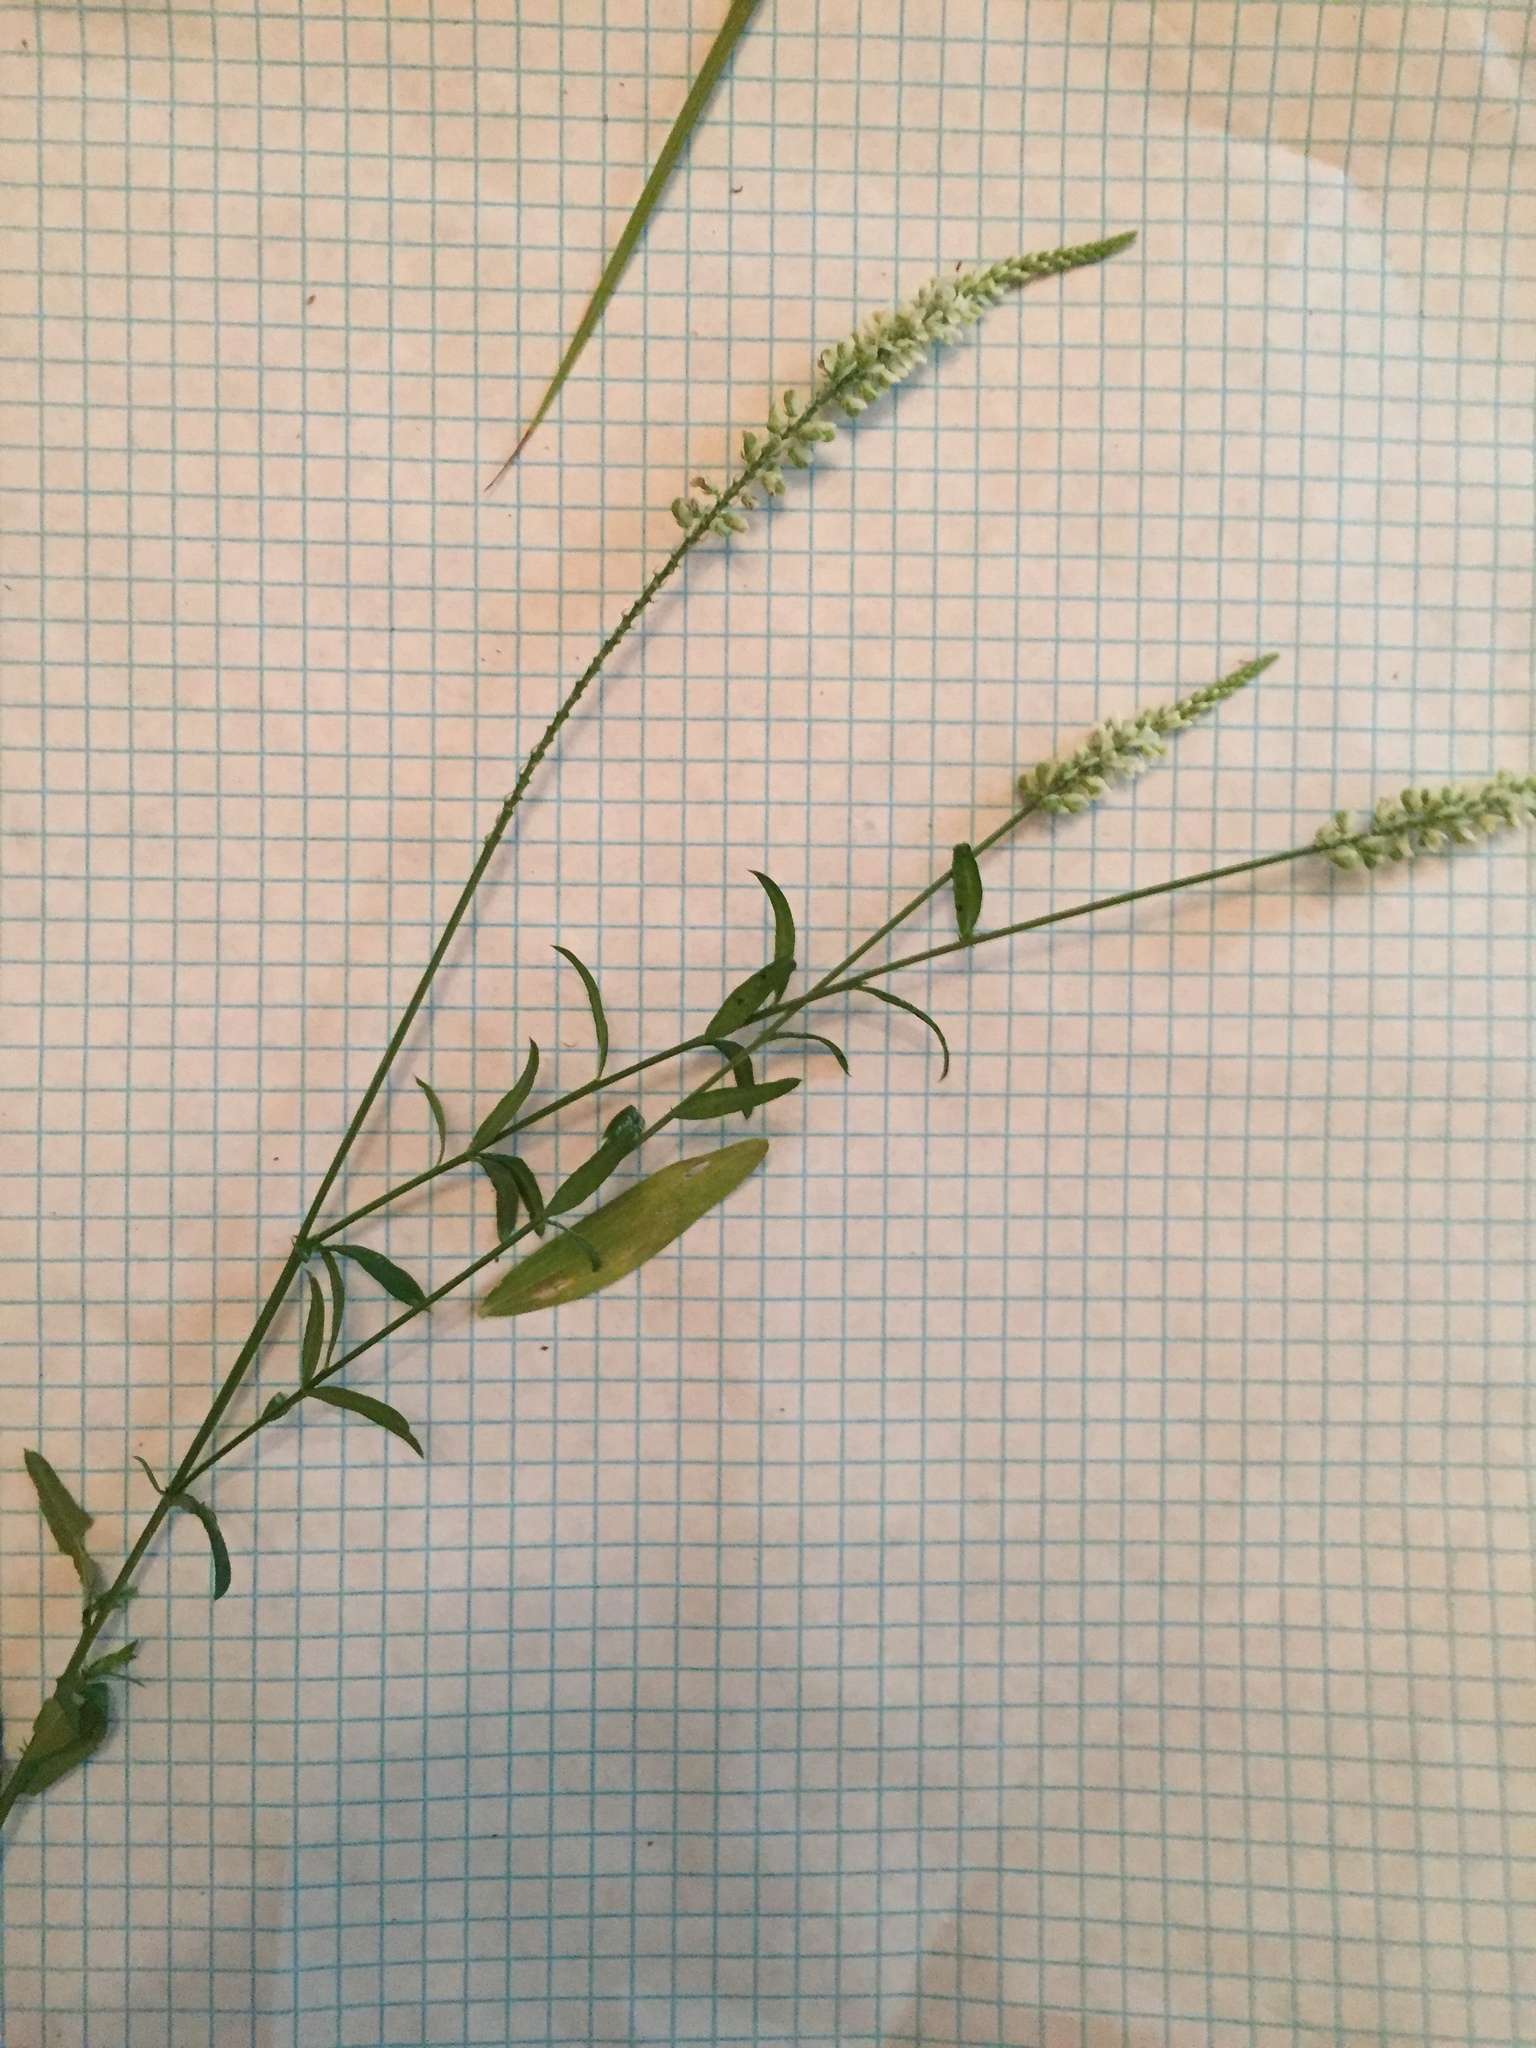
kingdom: Plantae
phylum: Tracheophyta
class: Magnoliopsida
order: Fabales
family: Polygalaceae
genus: Polygala
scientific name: Polygala boykinii
